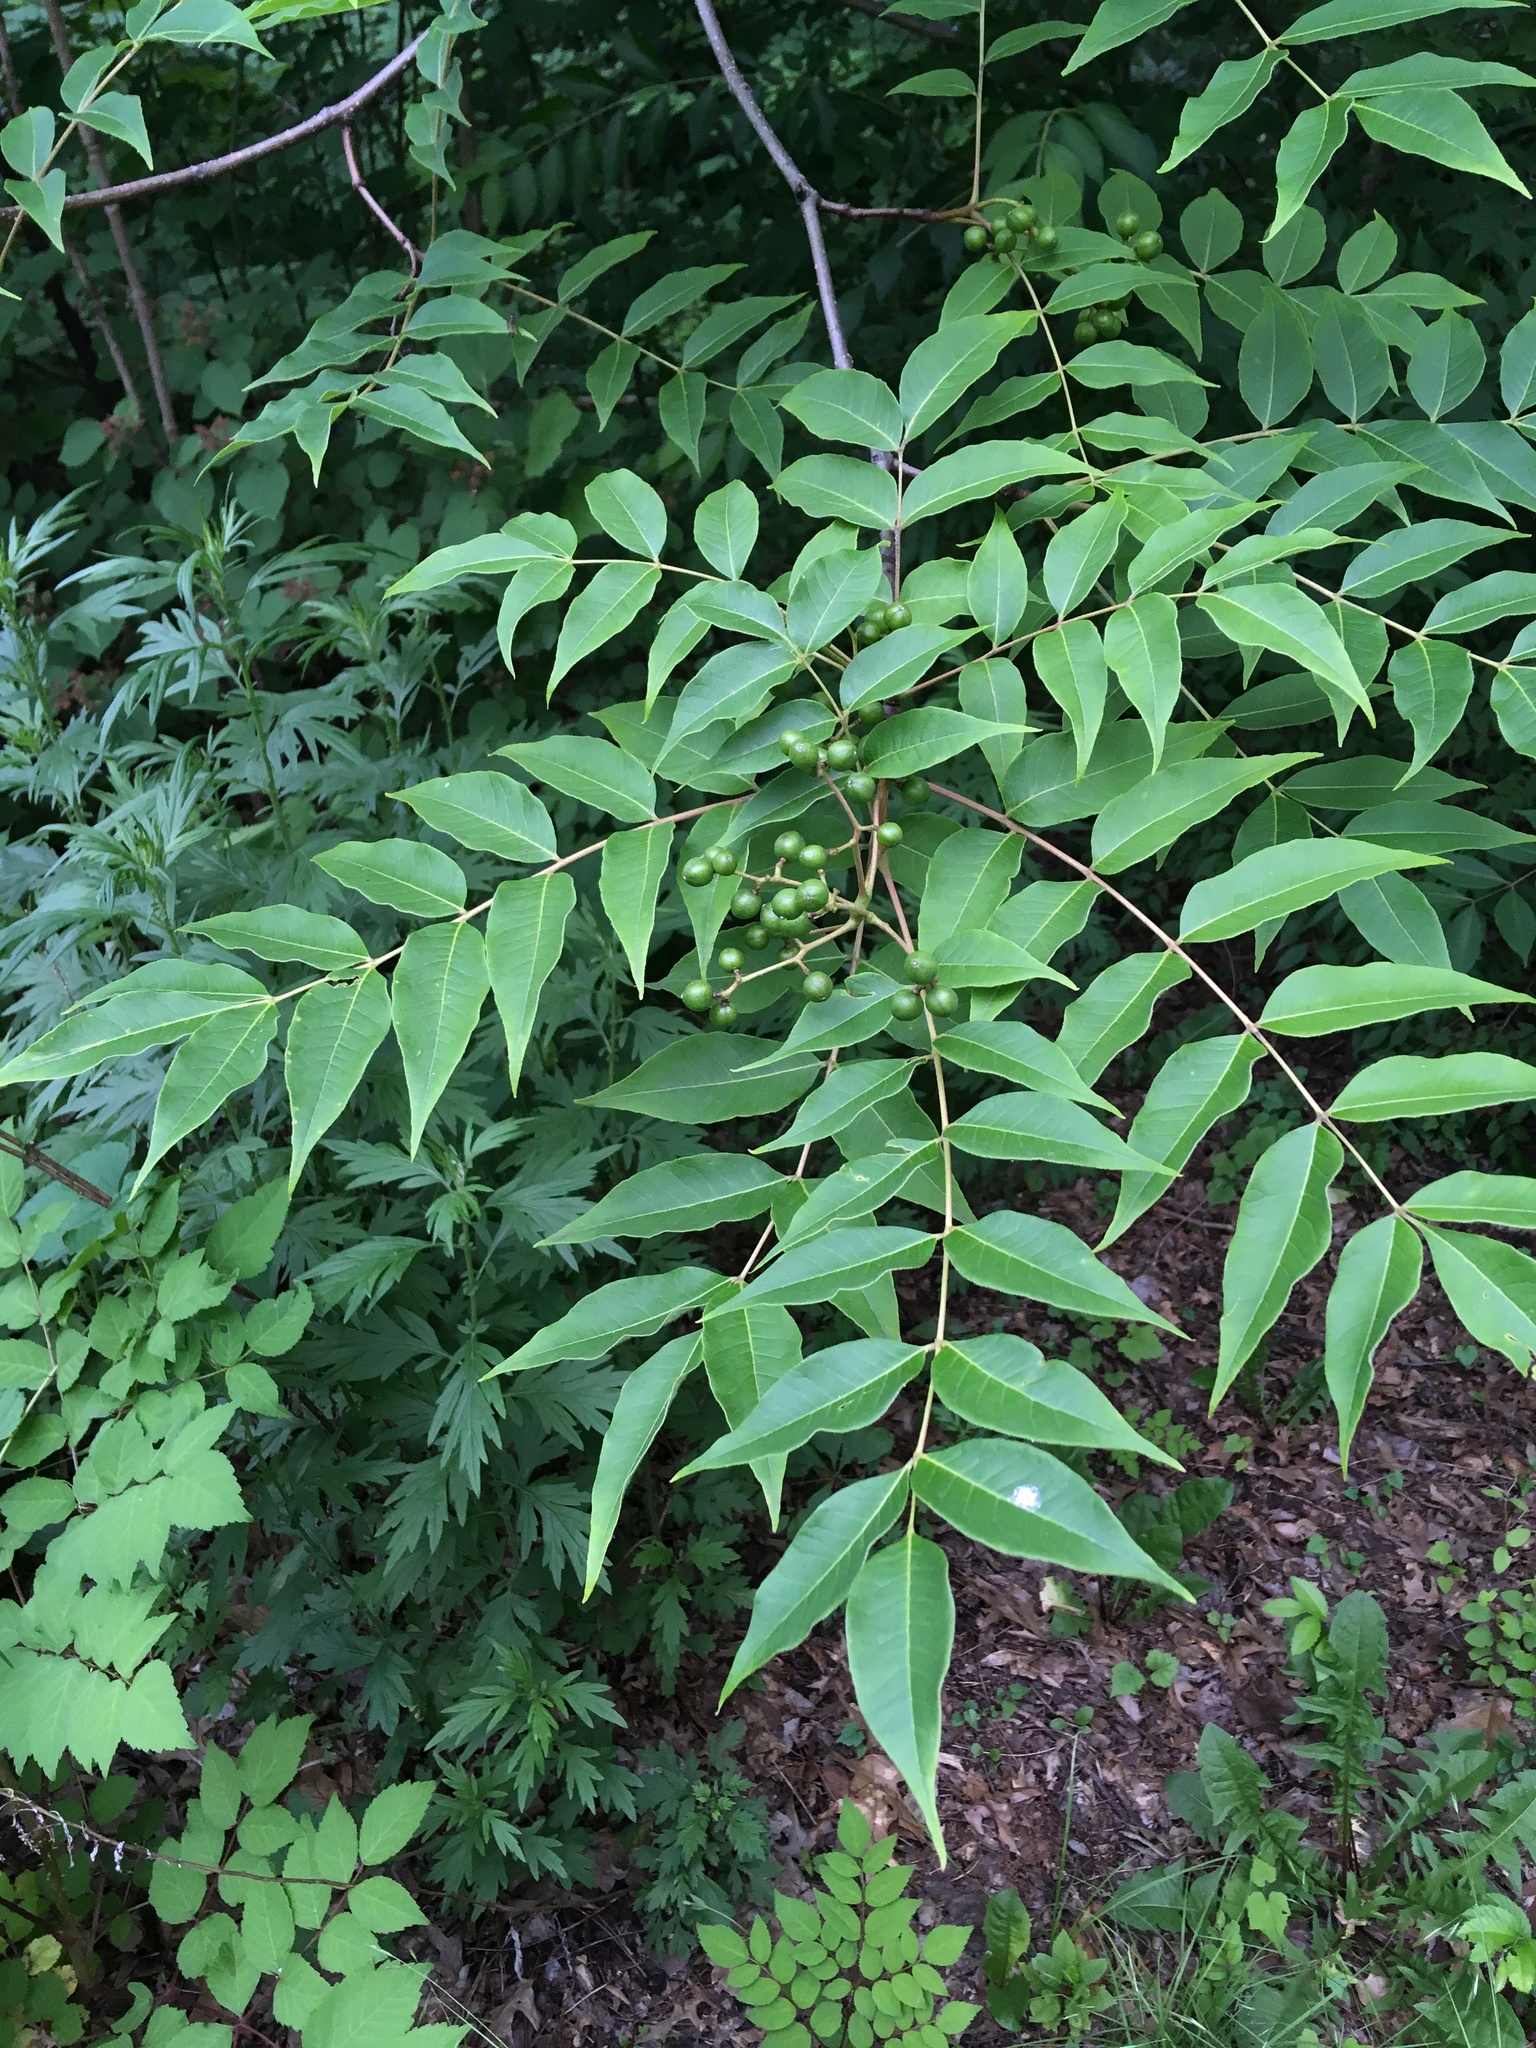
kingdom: Plantae
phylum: Tracheophyta
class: Magnoliopsida
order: Sapindales
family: Rutaceae
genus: Phellodendron
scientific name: Phellodendron amurense
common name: Amur corktree
